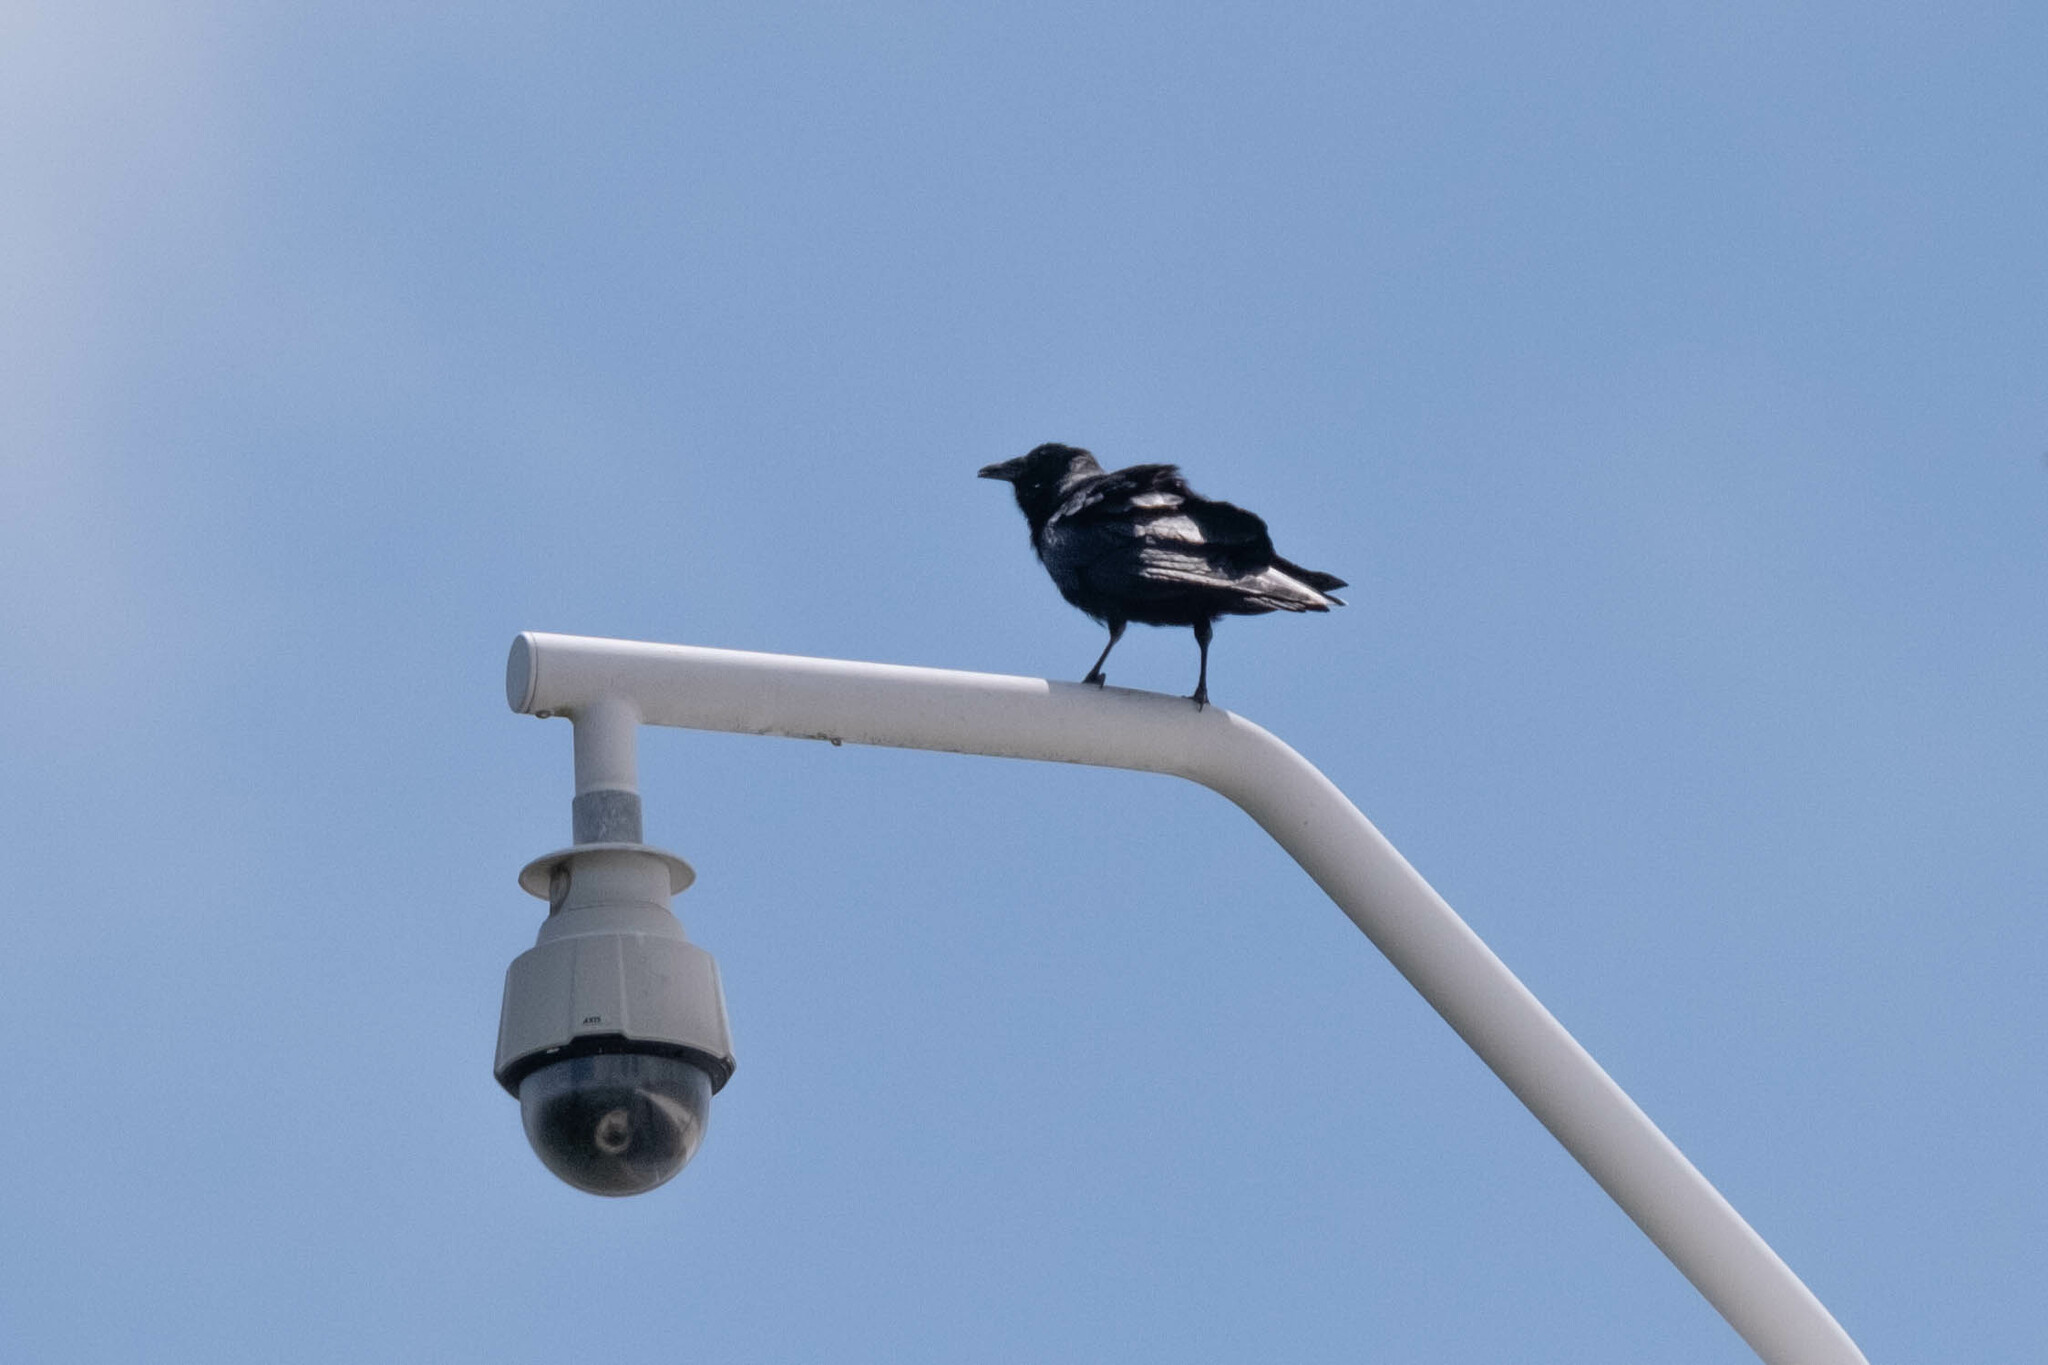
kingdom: Animalia
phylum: Chordata
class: Aves
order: Passeriformes
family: Corvidae
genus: Corvus
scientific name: Corvus ossifragus
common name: Fish crow
